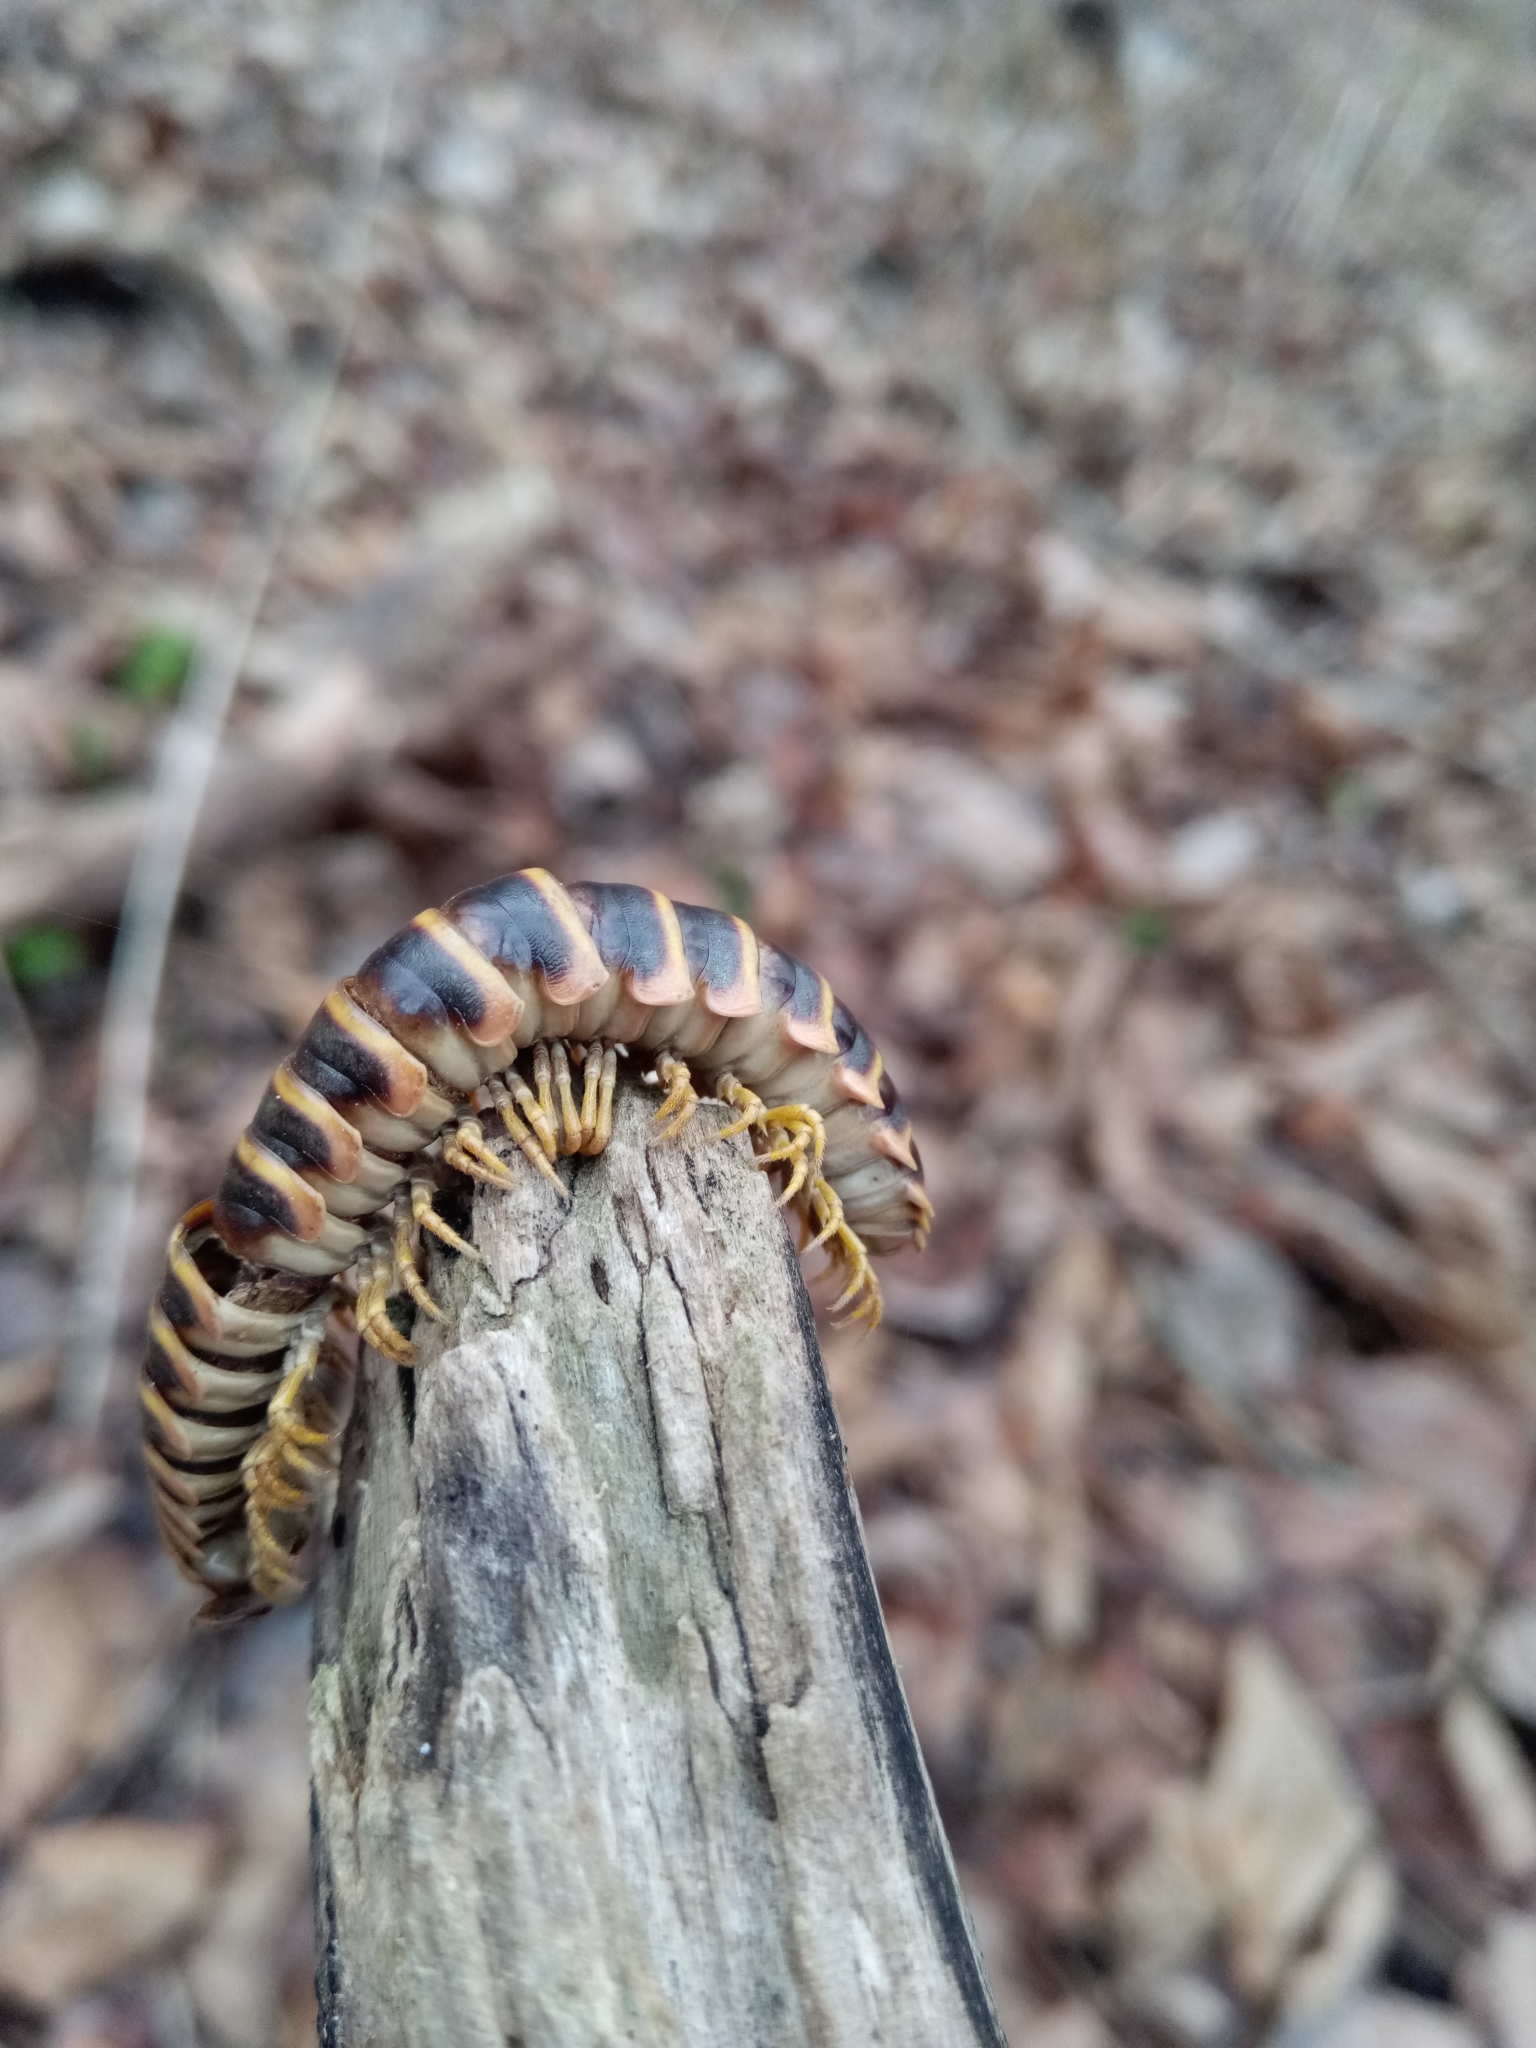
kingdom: Fungi
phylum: Entomophthoromycota
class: Entomophthoromycetes
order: Entomophthorales
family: Entomophthoraceae
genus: Arthrophaga
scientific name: Arthrophaga myriapodina
